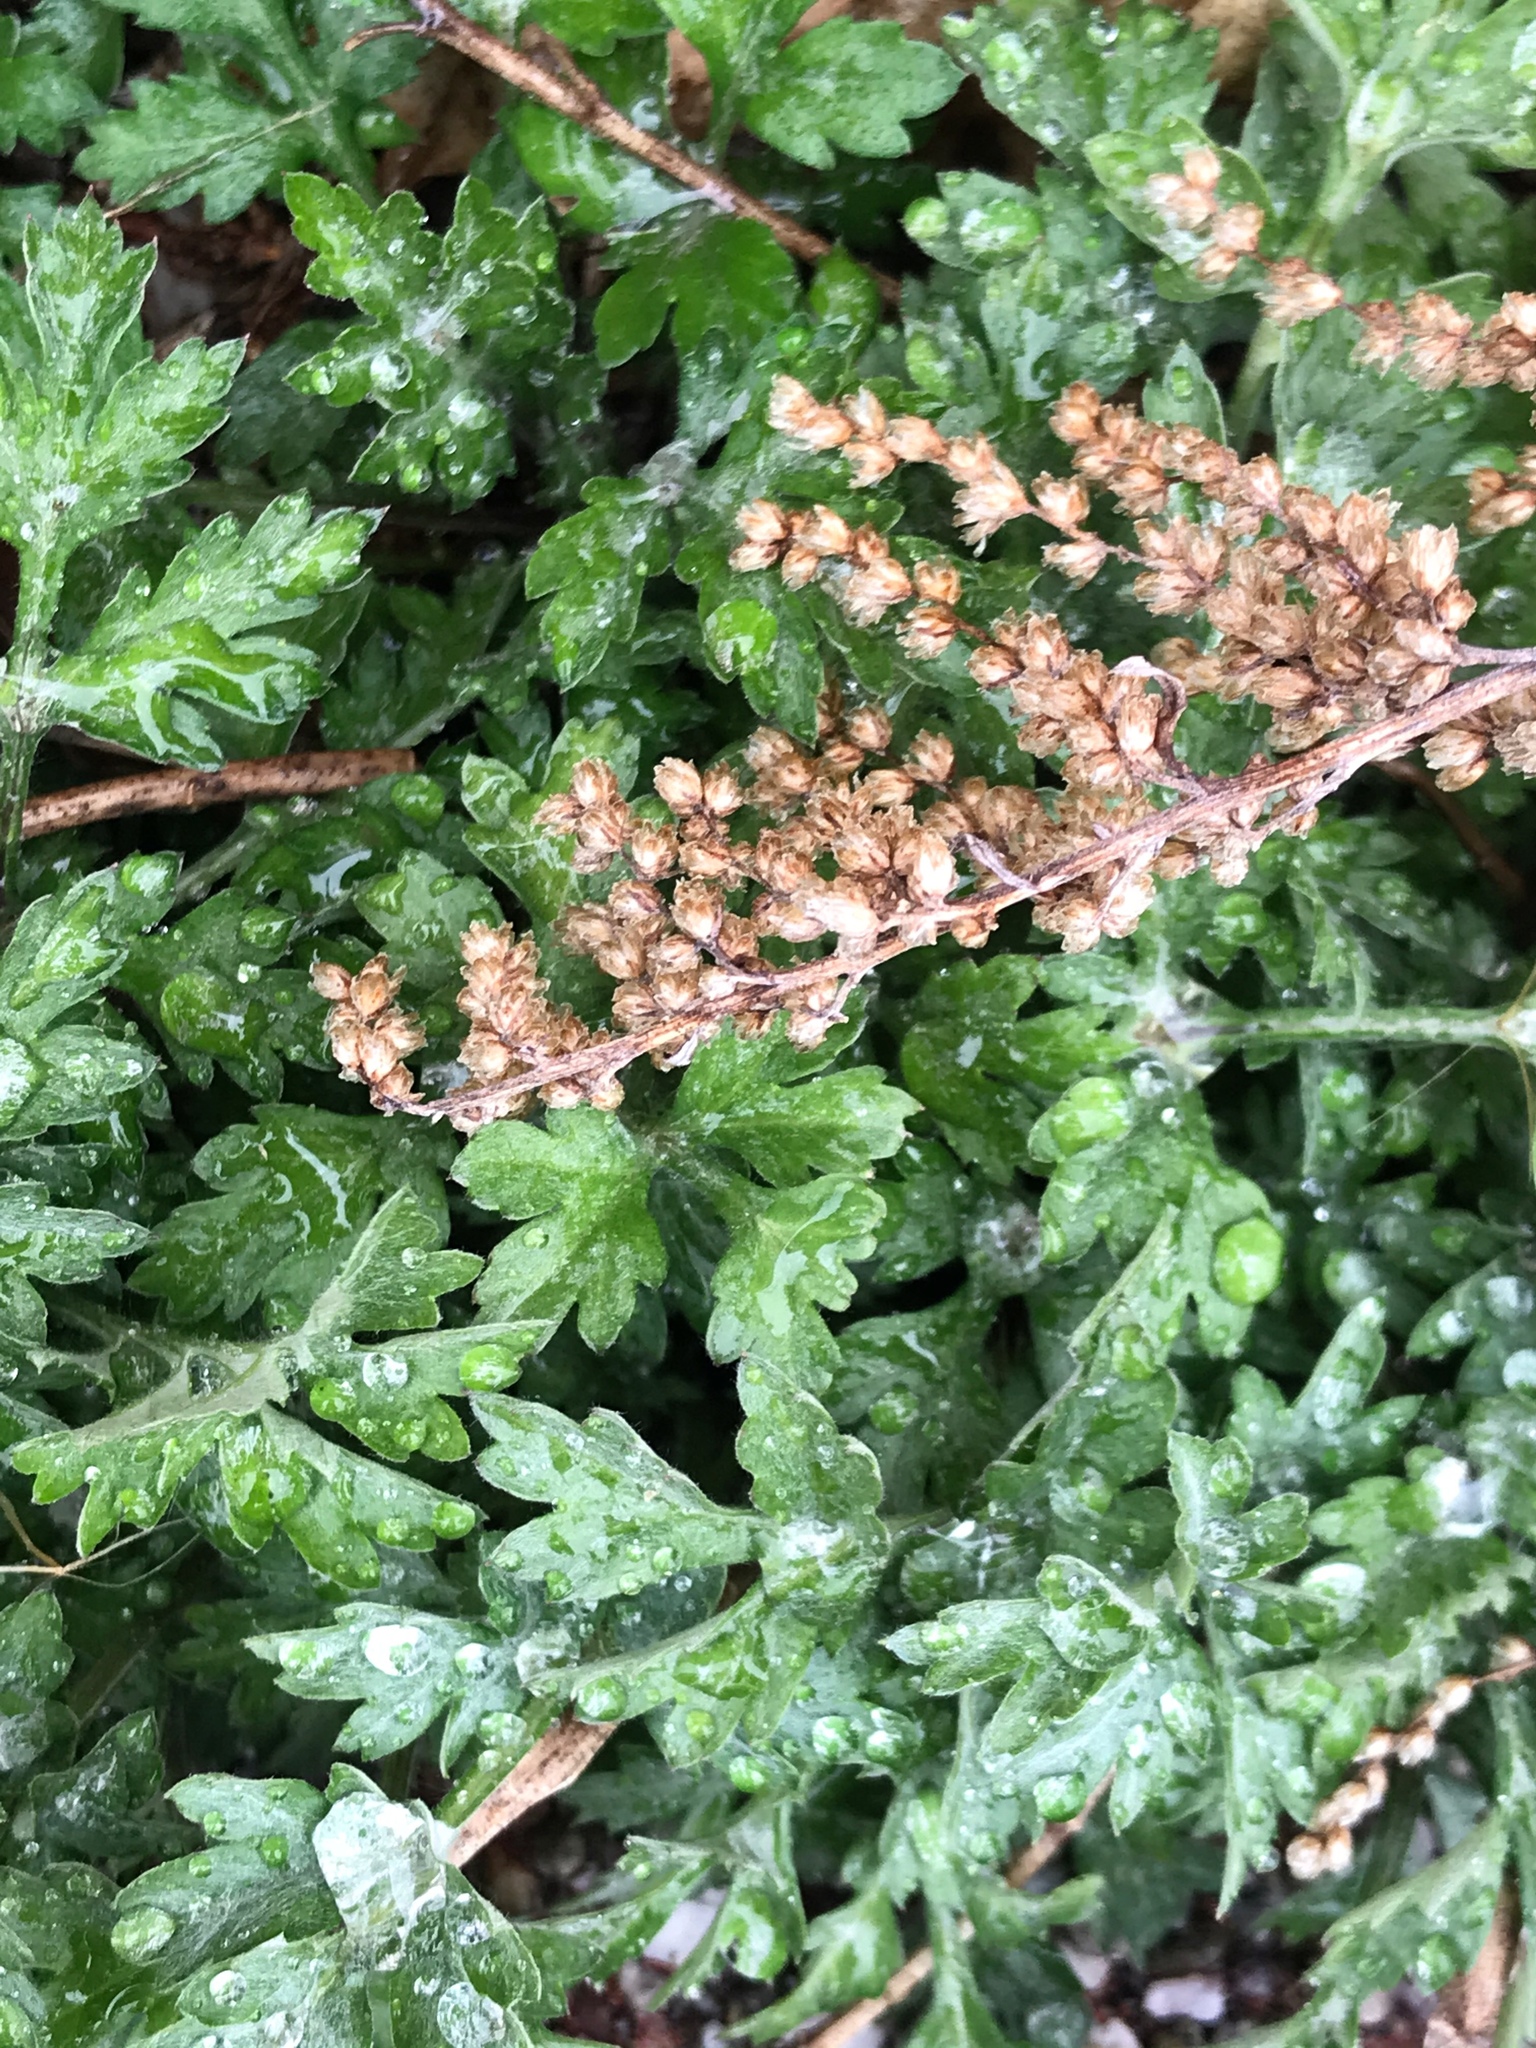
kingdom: Plantae
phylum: Tracheophyta
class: Magnoliopsida
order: Asterales
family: Asteraceae
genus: Artemisia
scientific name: Artemisia vulgaris
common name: Mugwort
